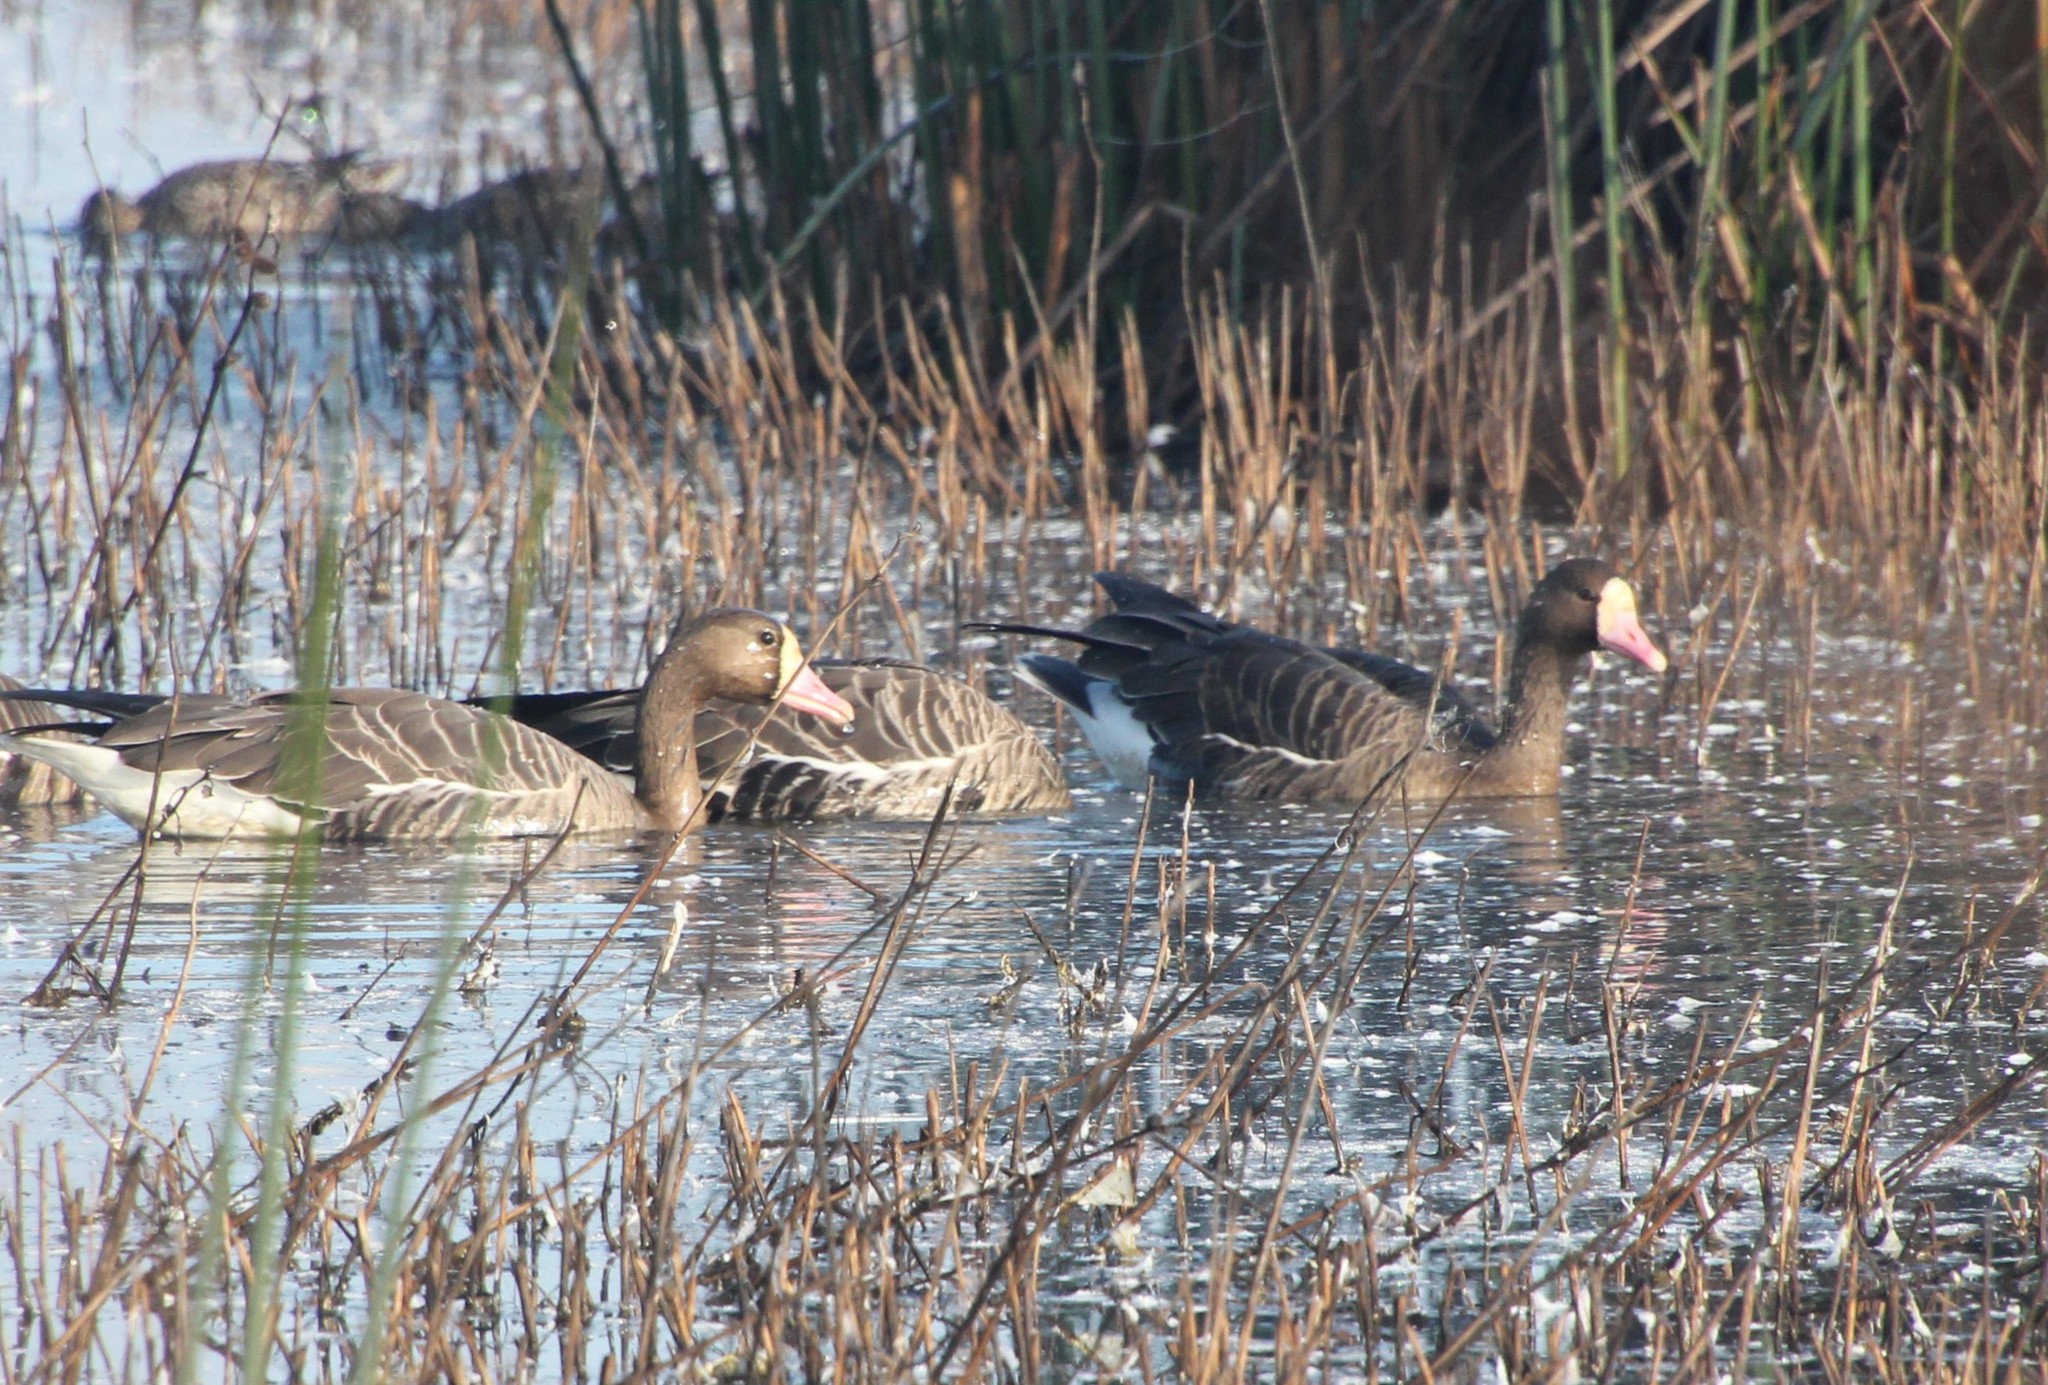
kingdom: Animalia
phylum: Chordata
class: Aves
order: Anseriformes
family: Anatidae
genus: Anser
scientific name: Anser albifrons
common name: Greater white-fronted goose
